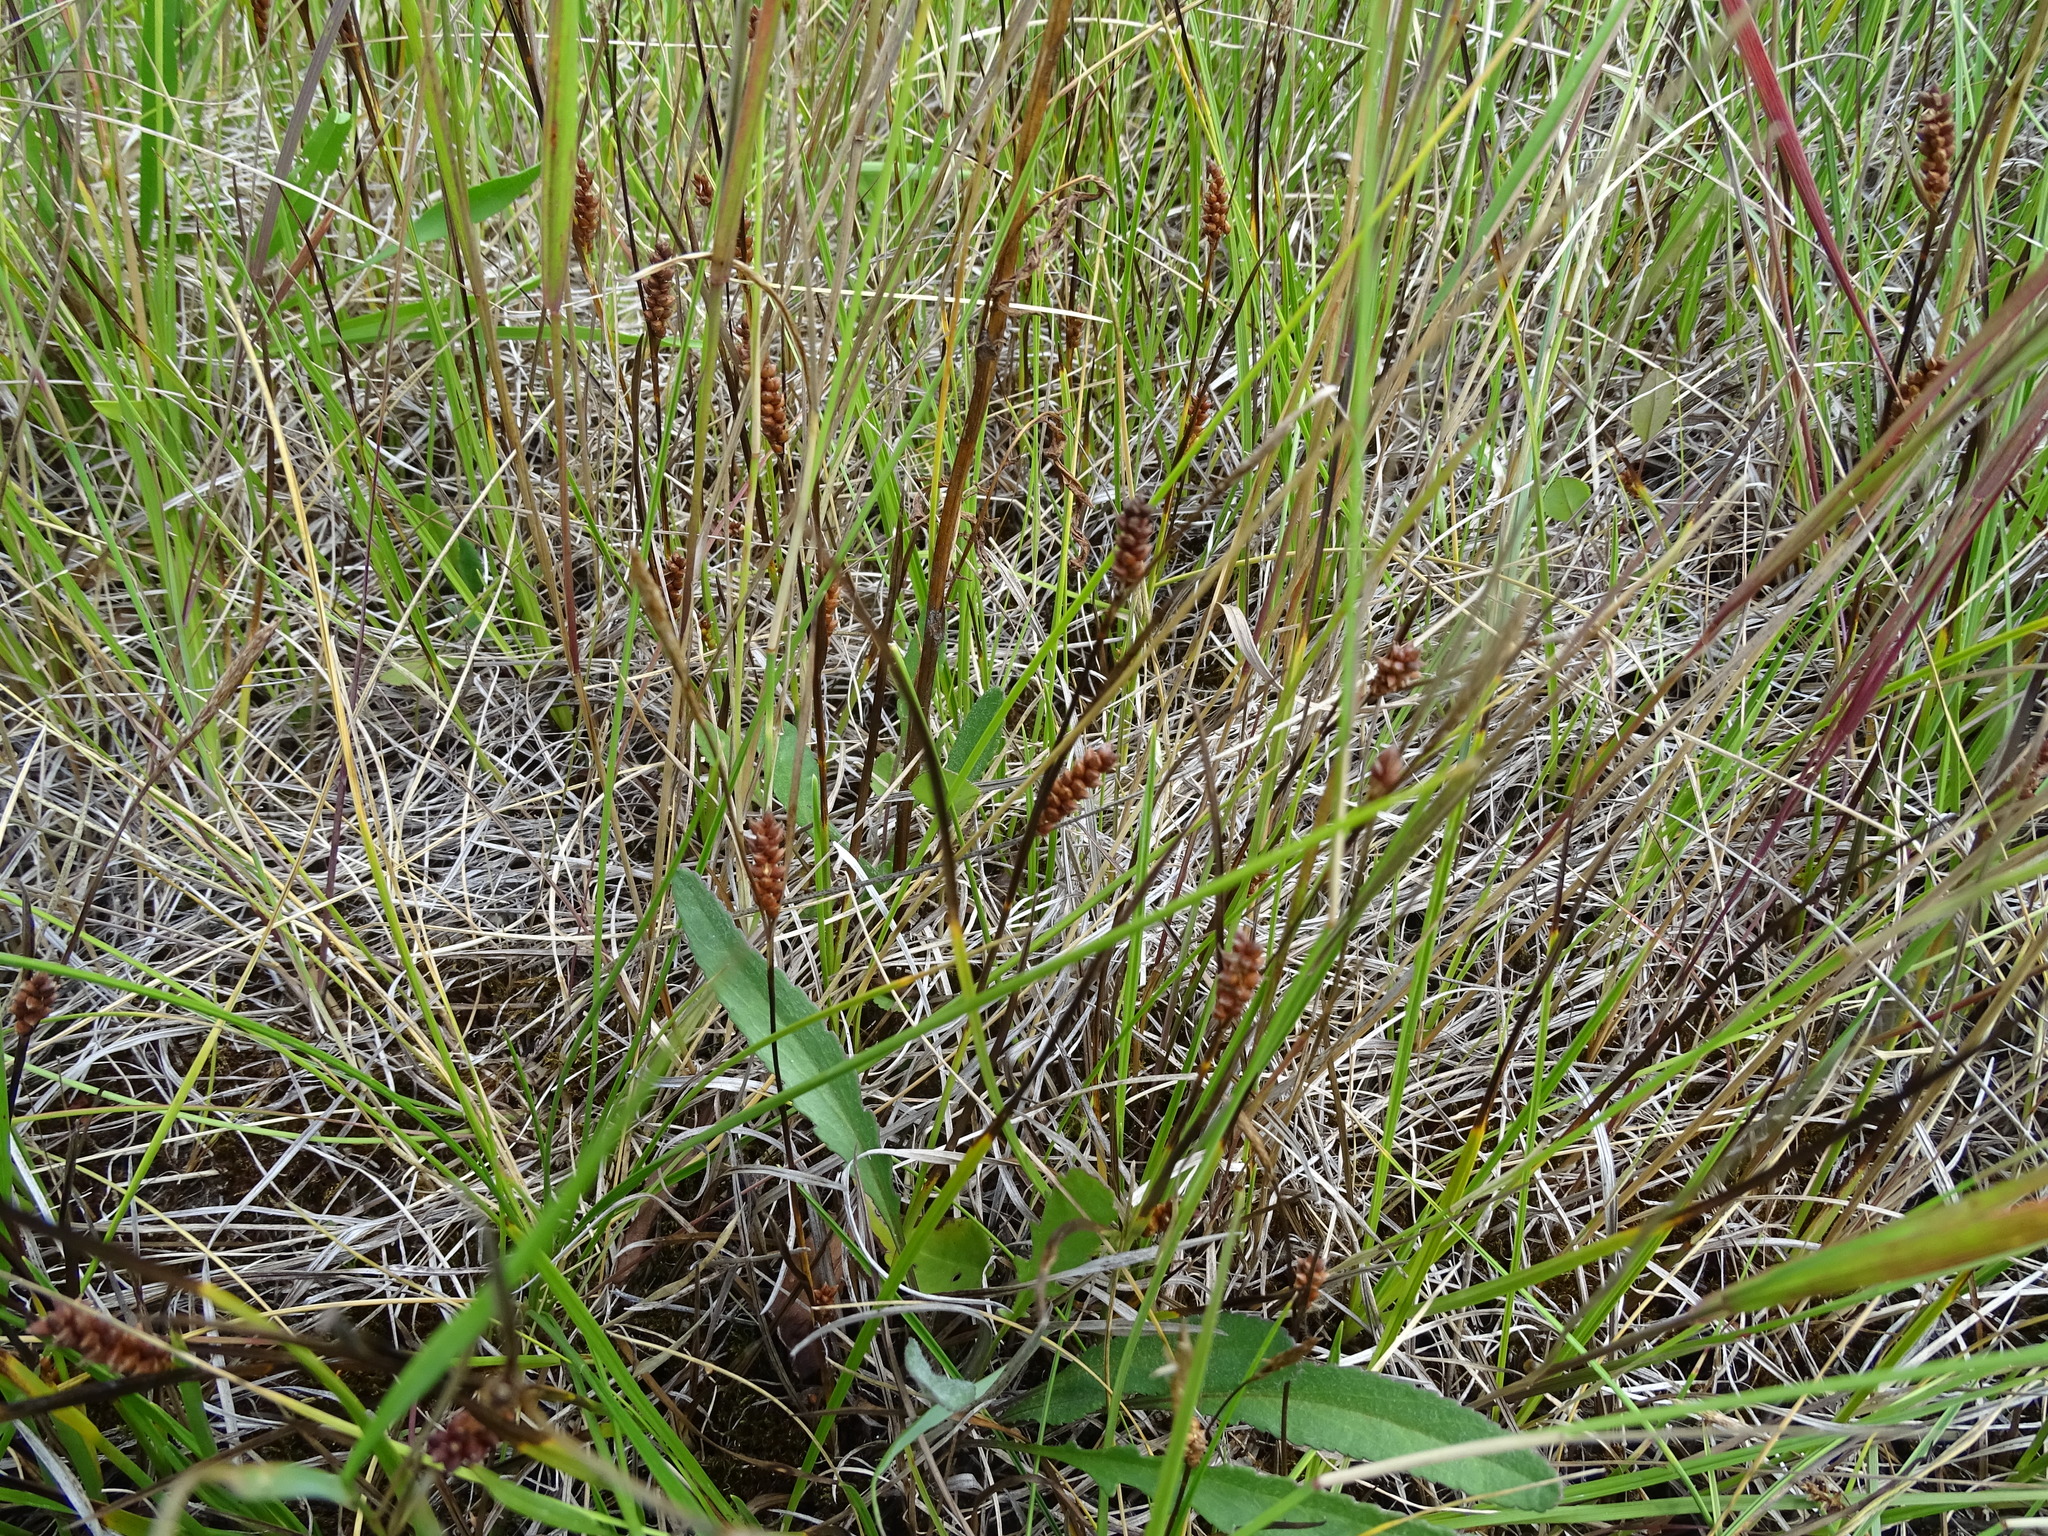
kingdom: Plantae
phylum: Tracheophyta
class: Liliopsida
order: Poales
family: Cyperaceae
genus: Carex
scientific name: Carex crawei
